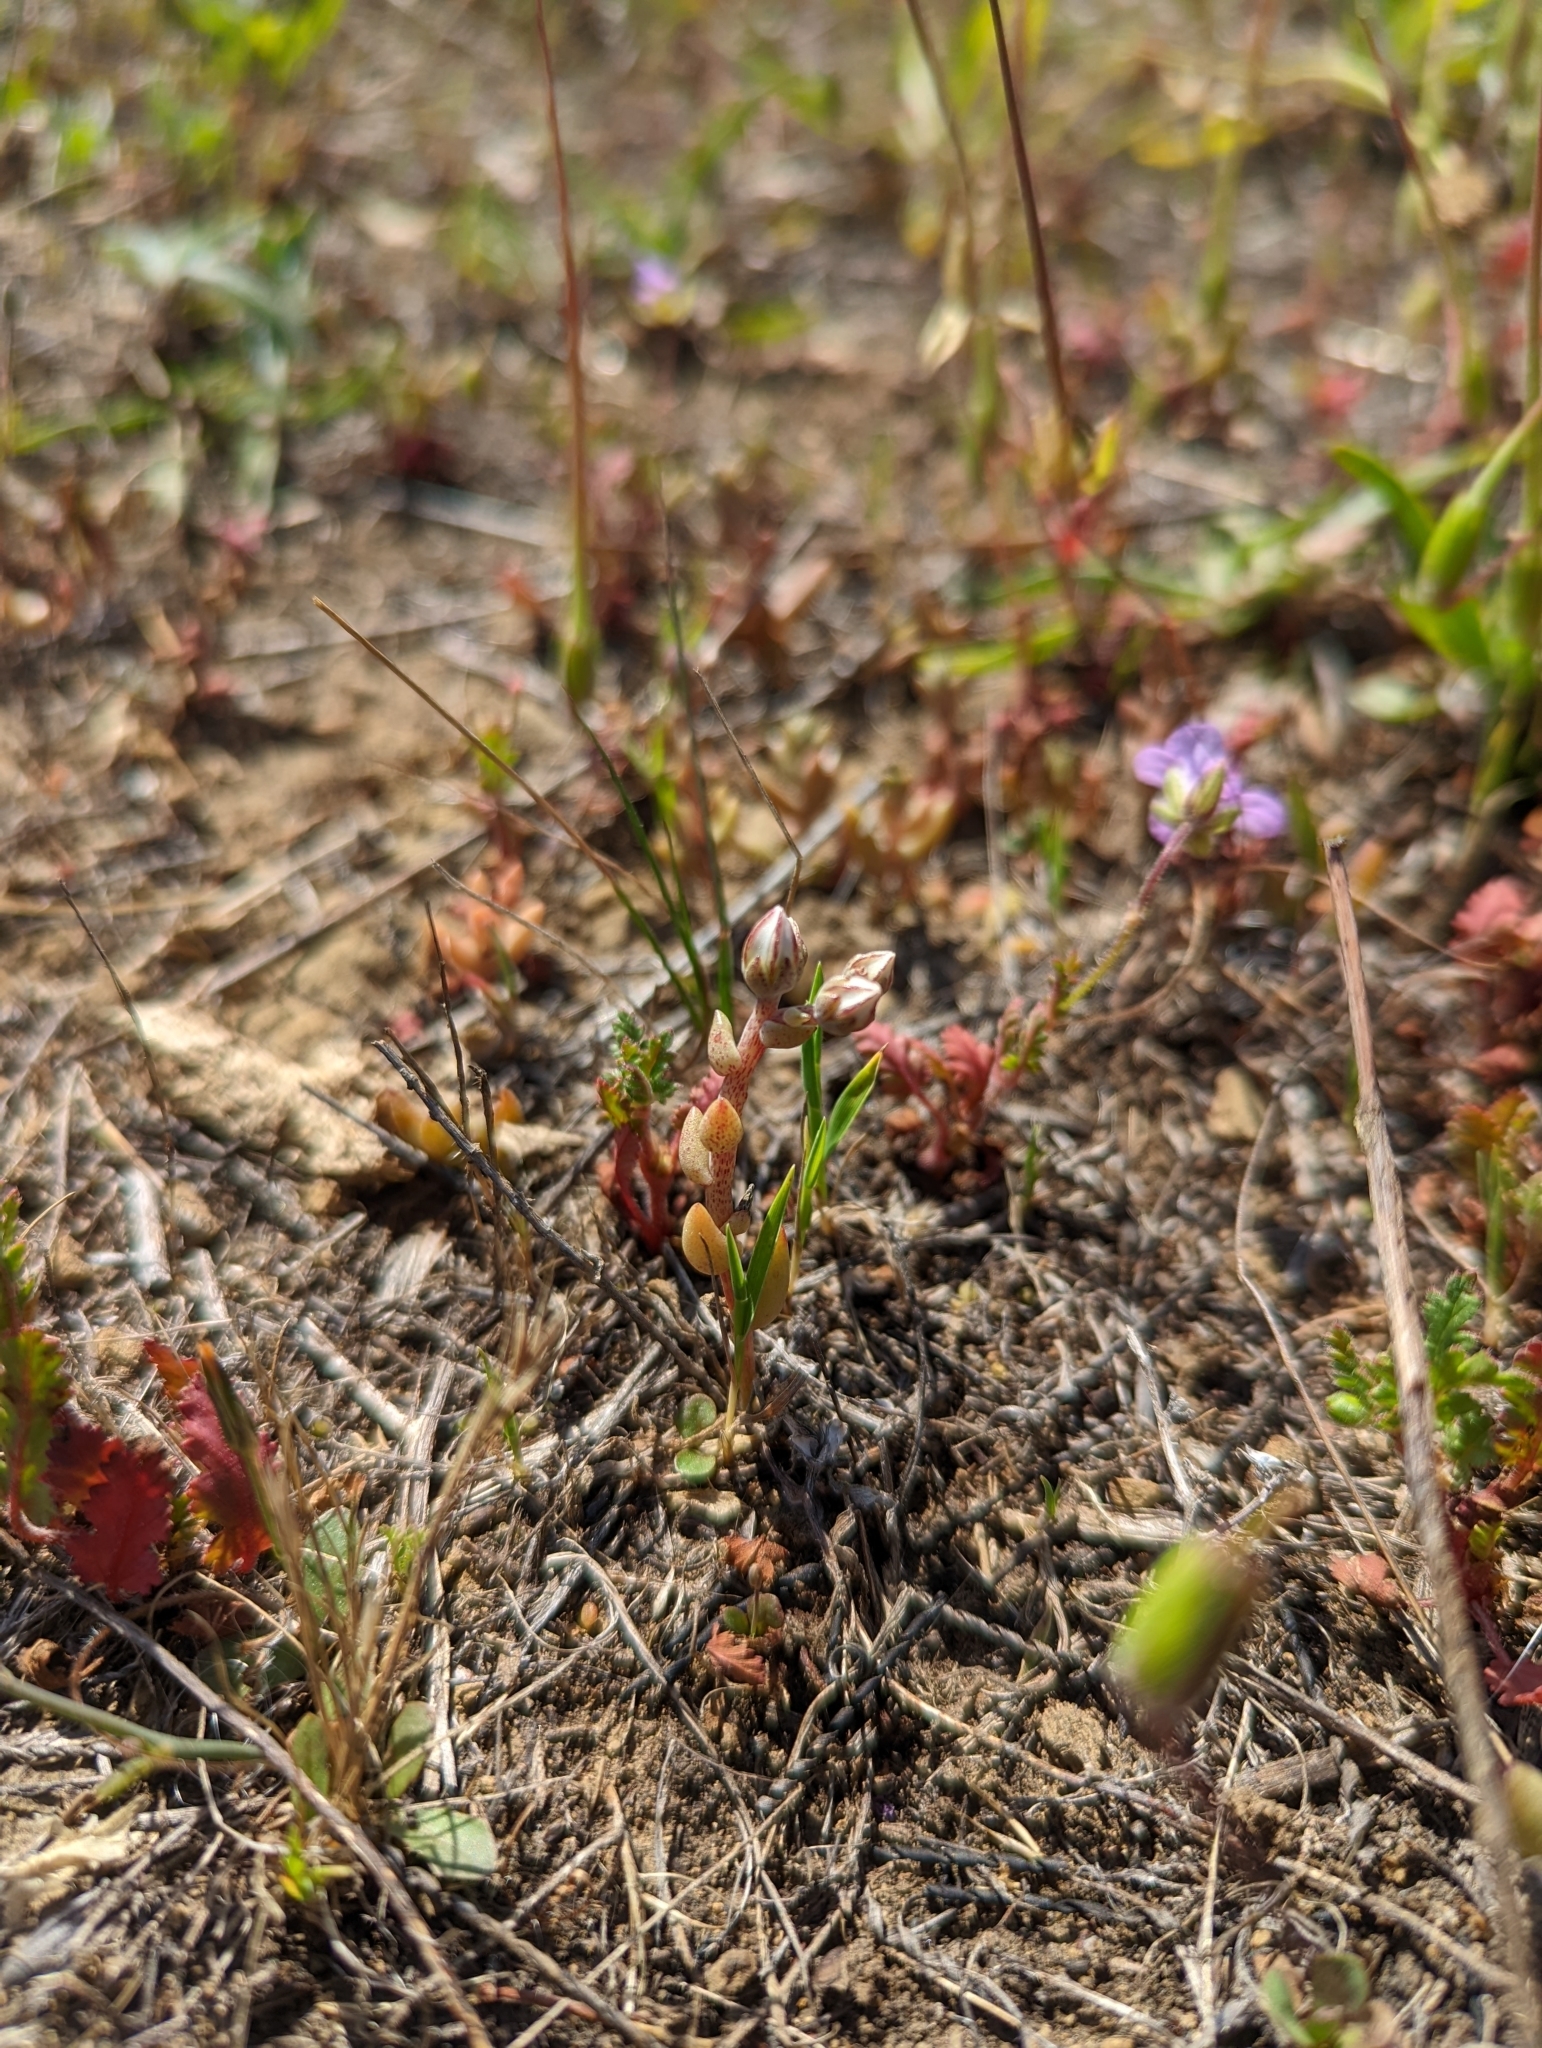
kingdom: Plantae
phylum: Tracheophyta
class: Magnoliopsida
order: Saxifragales
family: Crassulaceae
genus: Dudleya
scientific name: Dudleya blochmaniae
